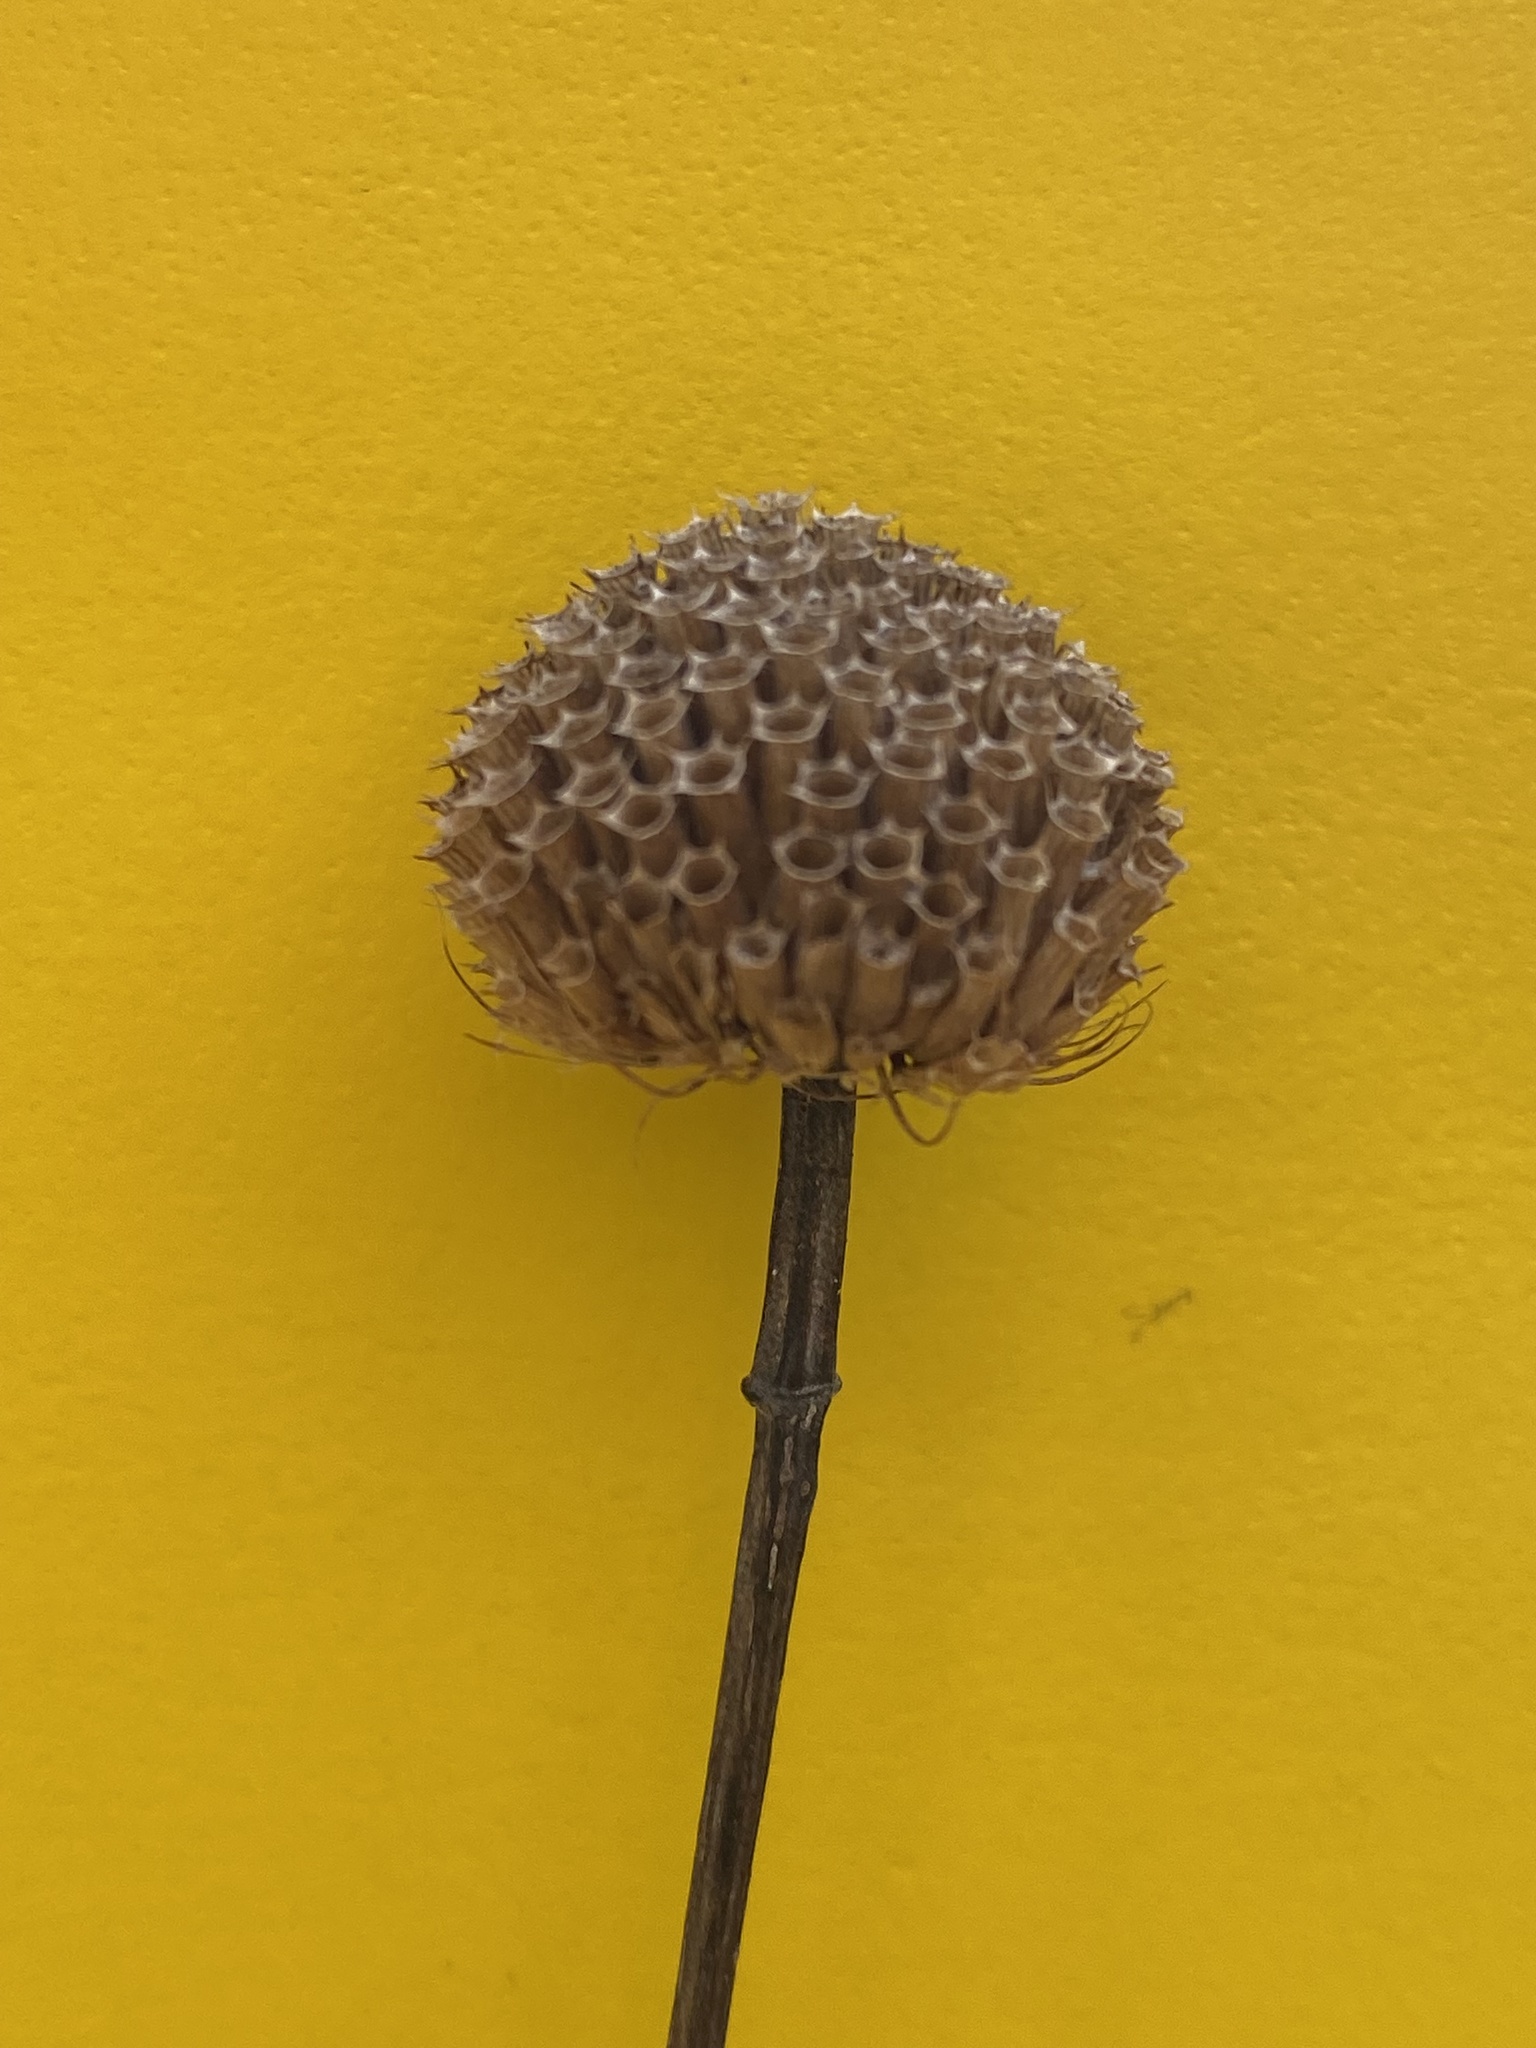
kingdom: Plantae
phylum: Tracheophyta
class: Magnoliopsida
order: Lamiales
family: Lamiaceae
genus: Monarda
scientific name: Monarda fistulosa
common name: Purple beebalm
